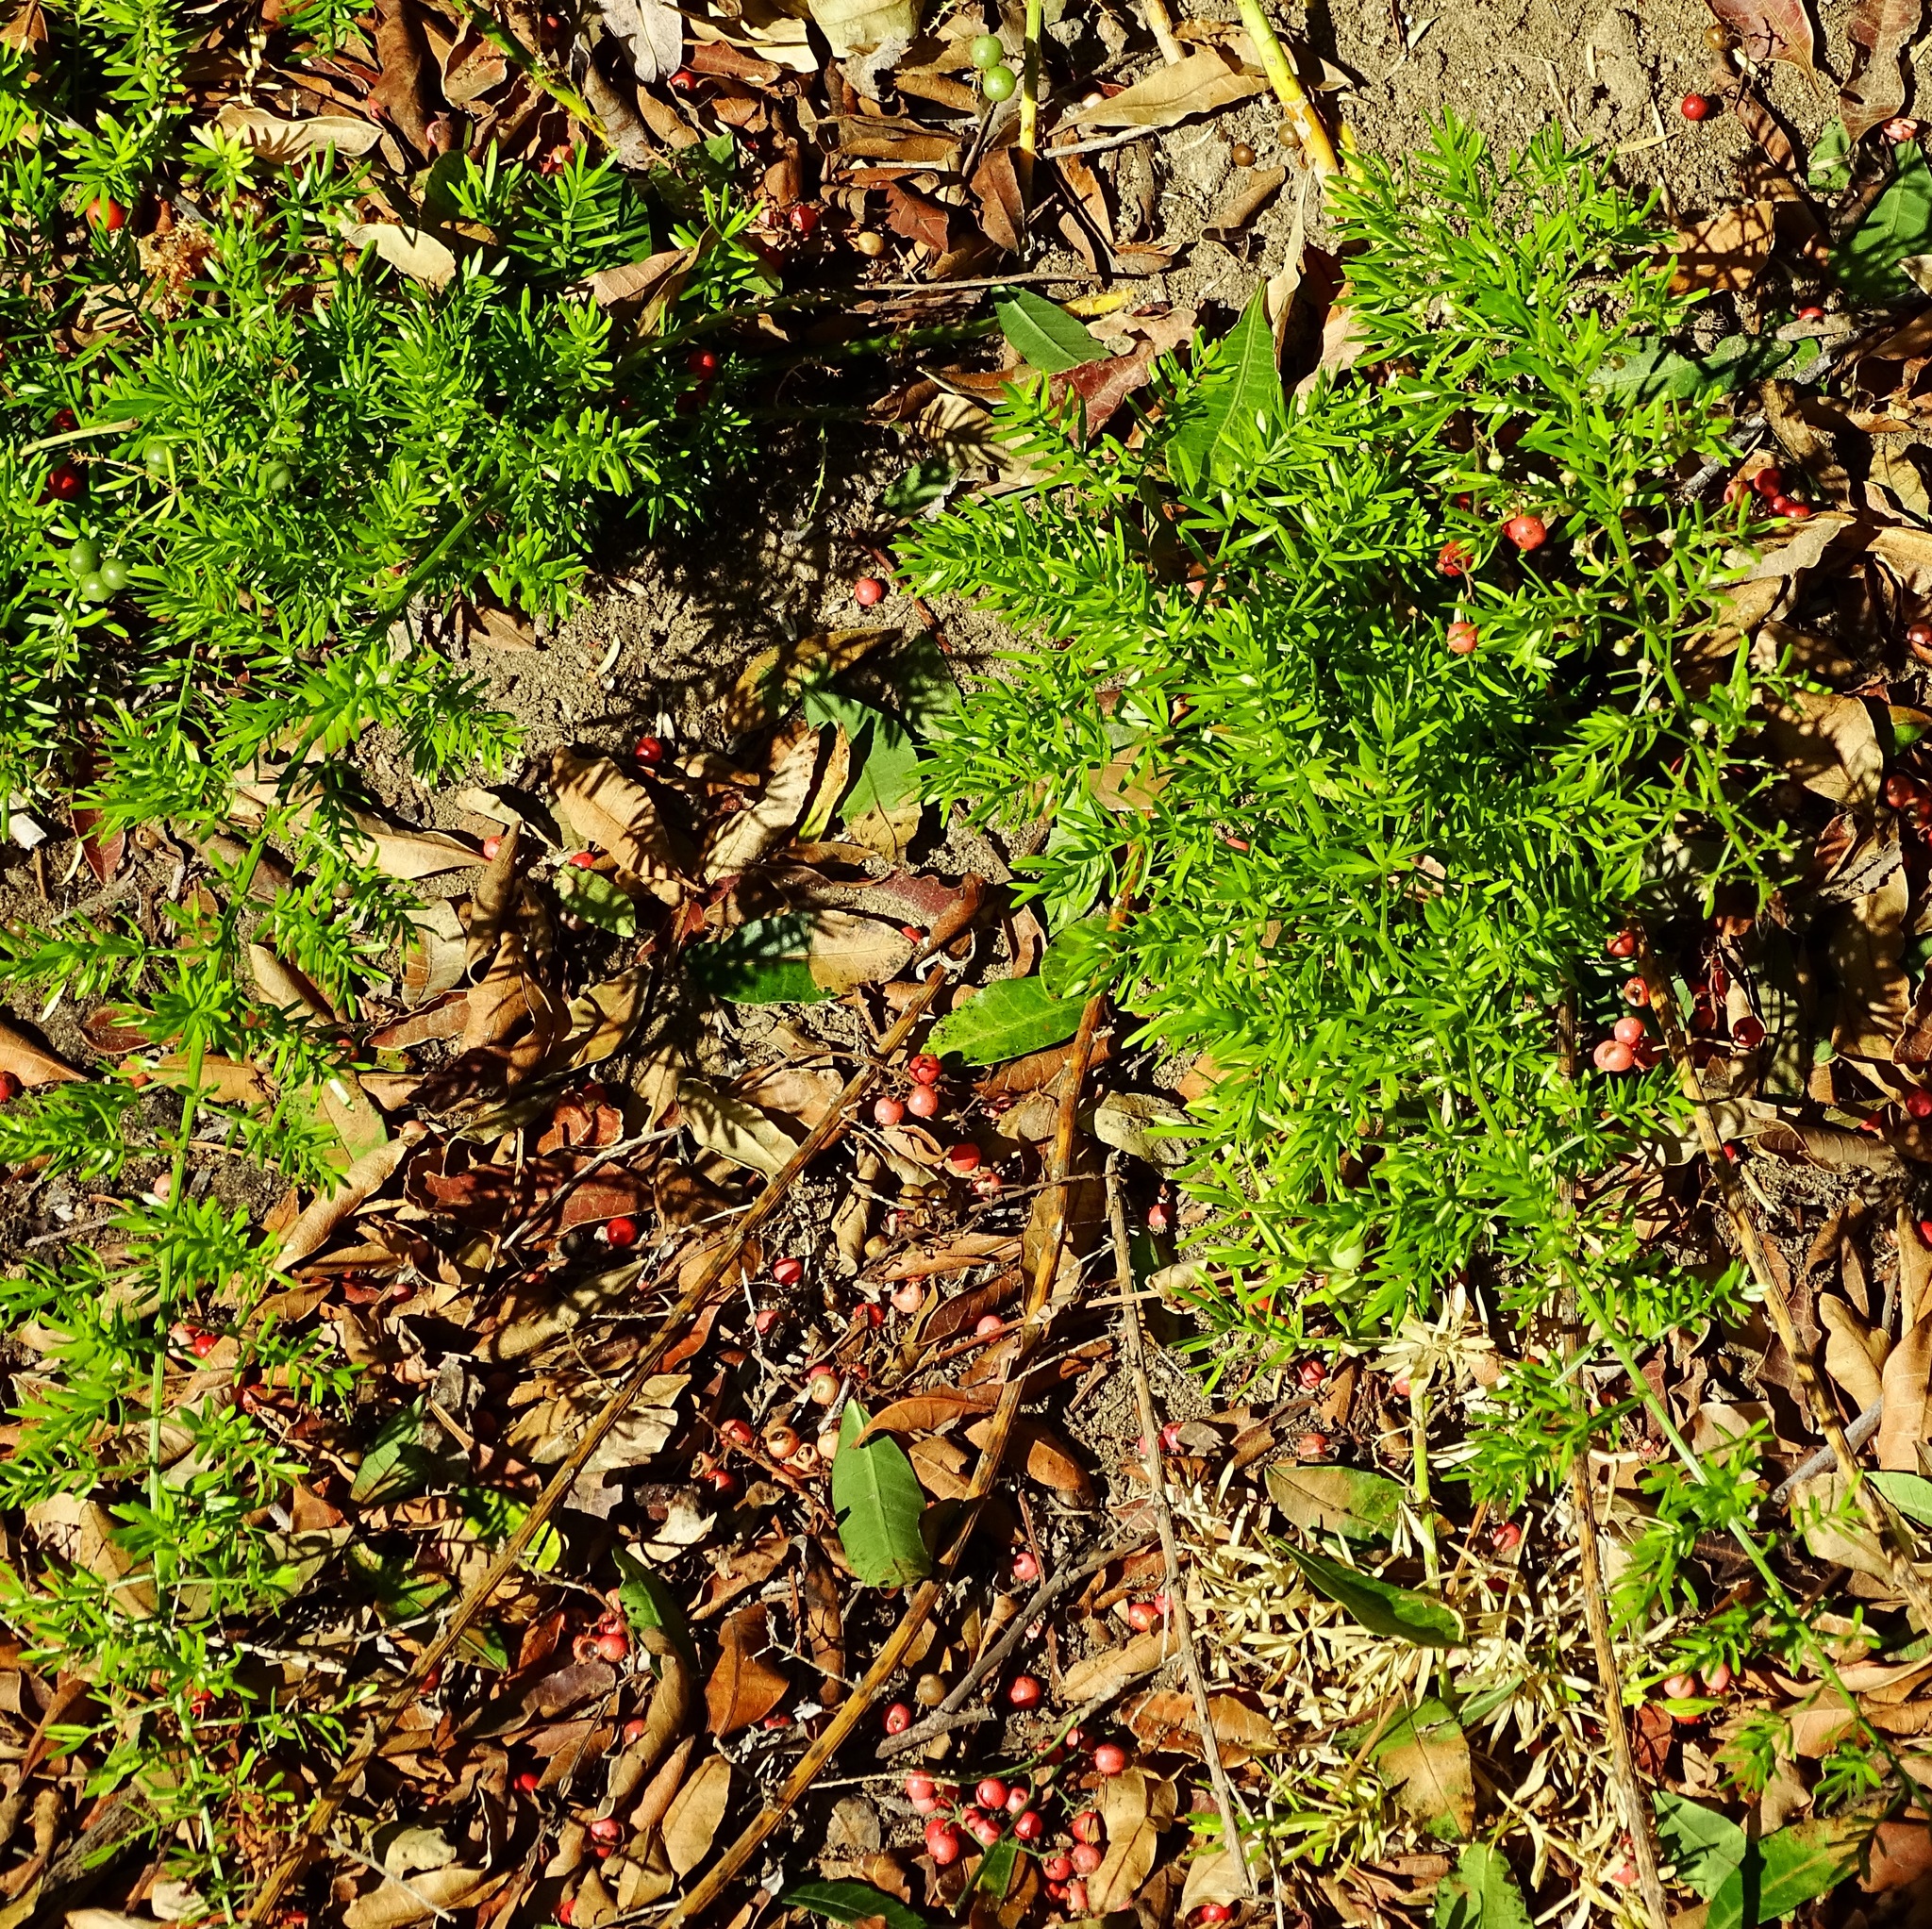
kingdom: Plantae
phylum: Tracheophyta
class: Liliopsida
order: Asparagales
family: Asparagaceae
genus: Asparagus
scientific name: Asparagus aethiopicus
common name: Sprenger's asparagus fern
